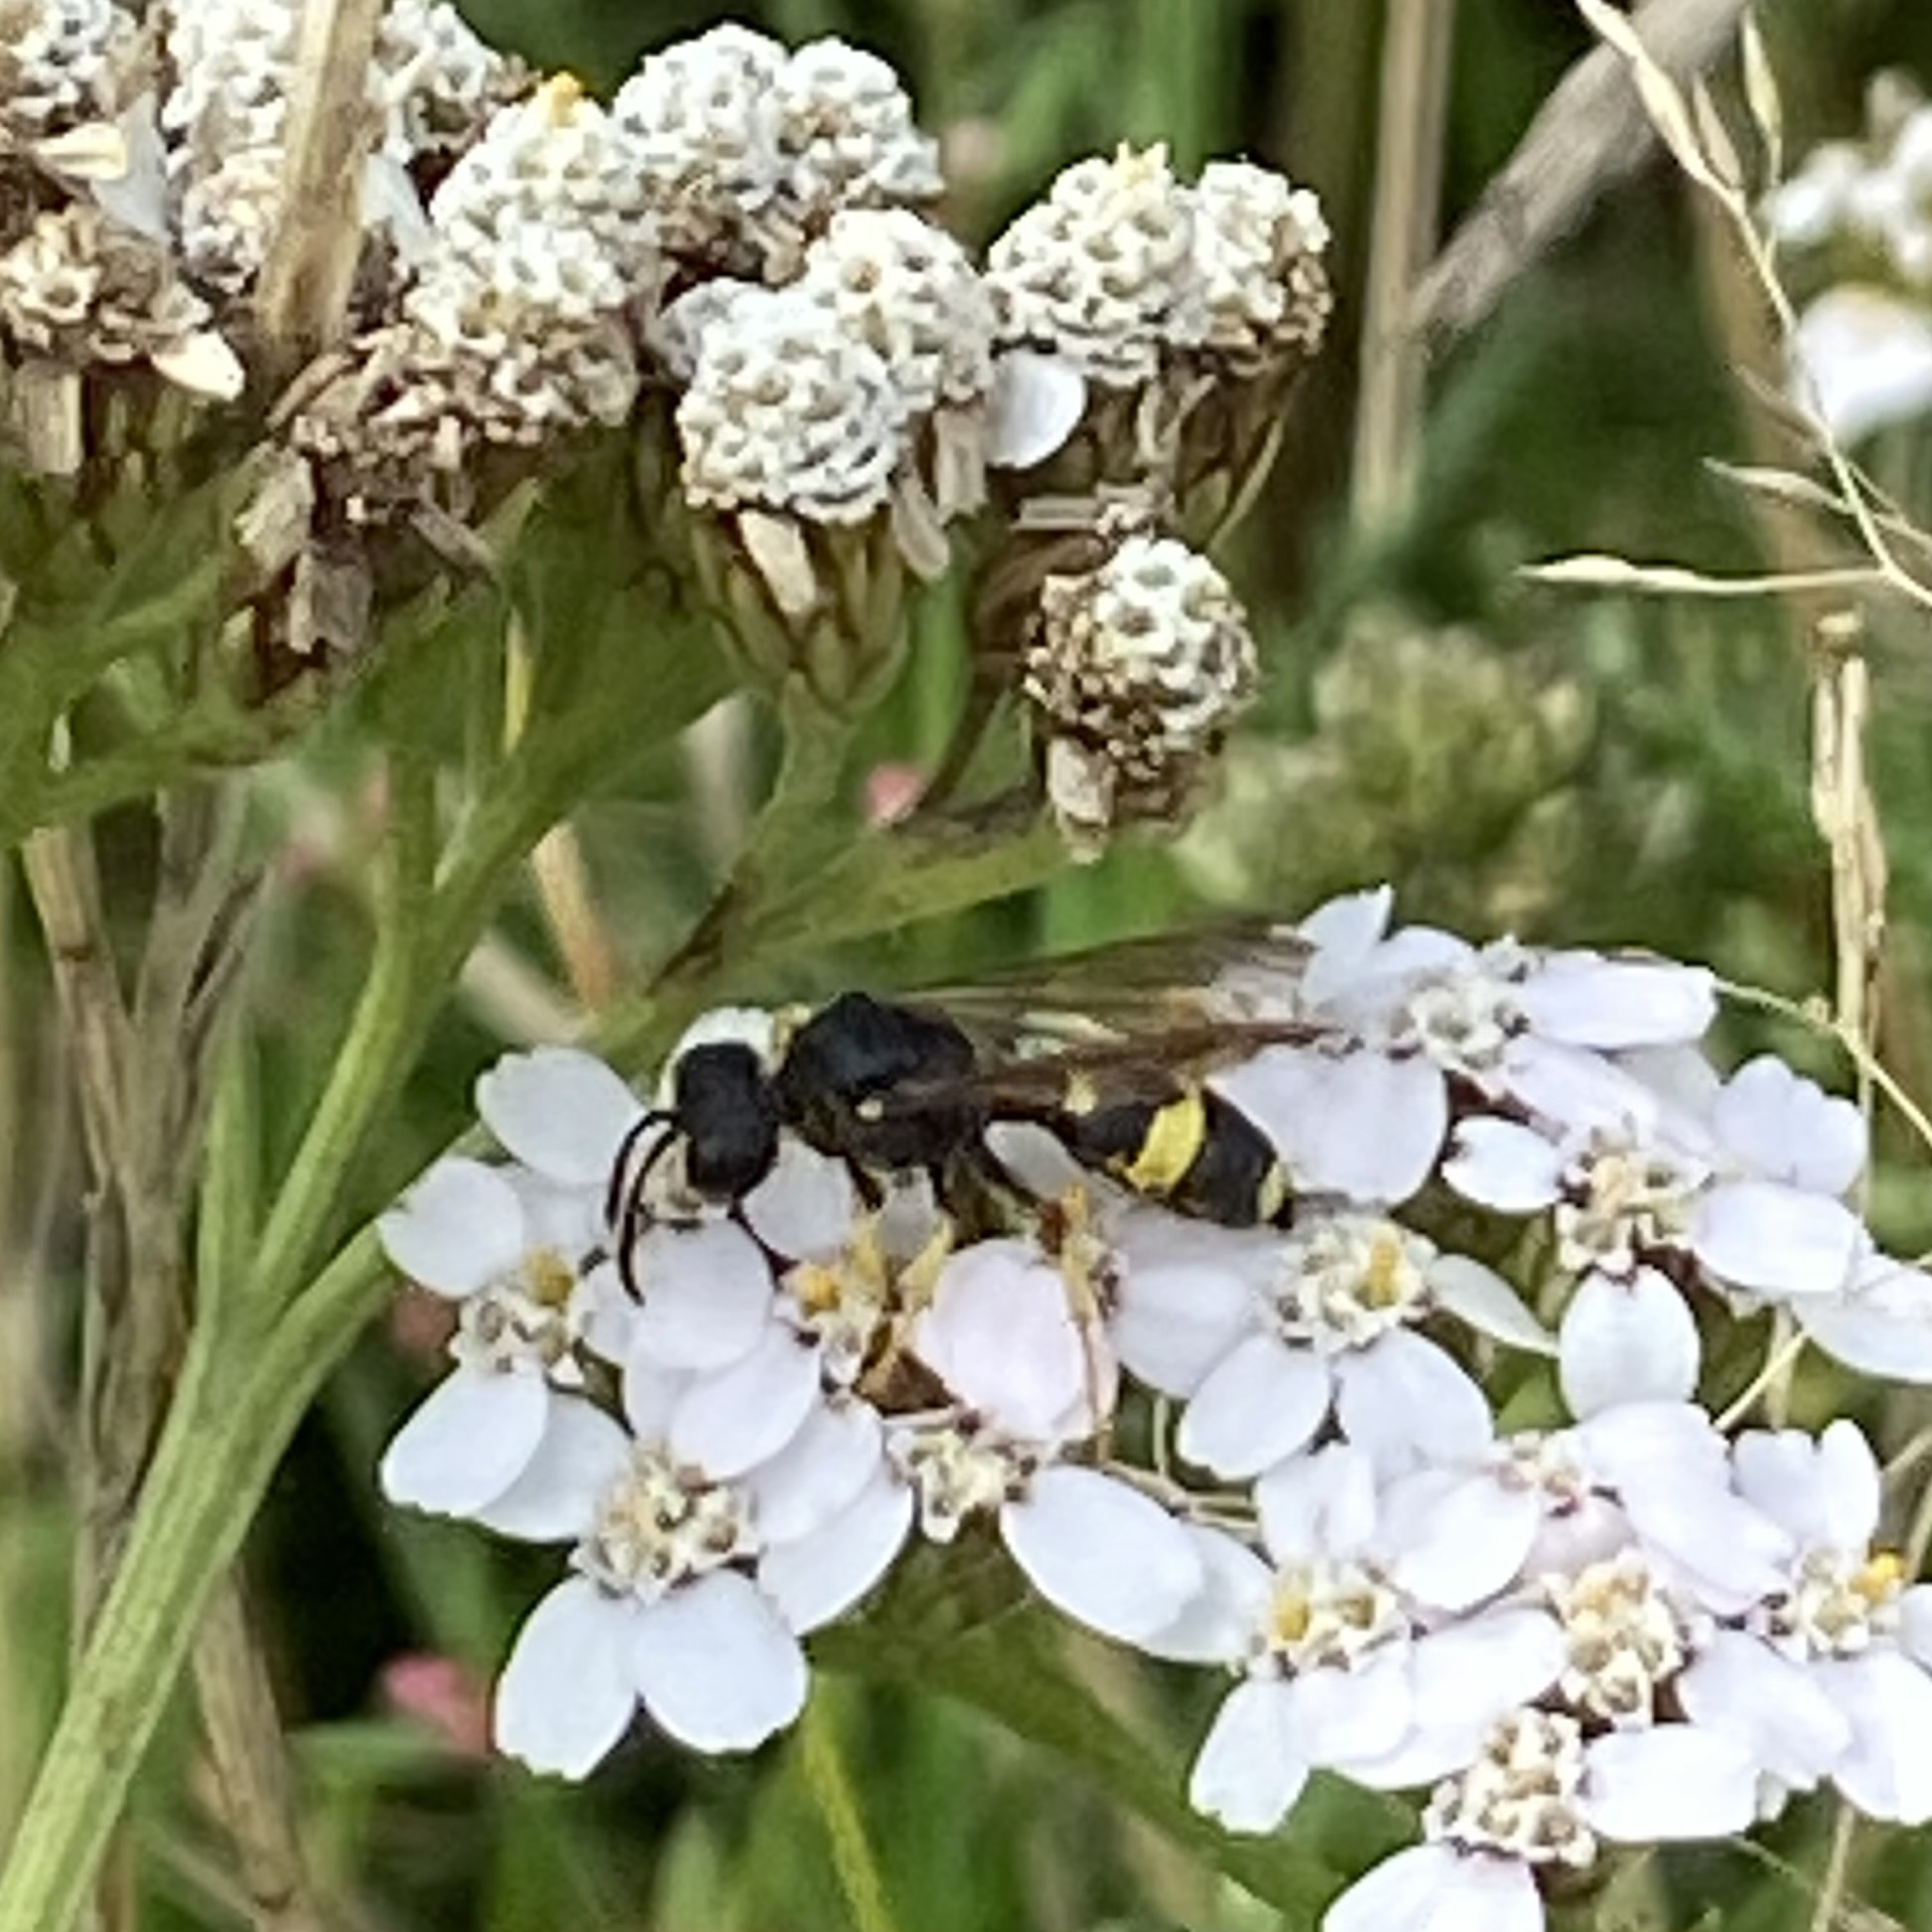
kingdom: Animalia
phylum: Arthropoda
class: Insecta
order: Hymenoptera
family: Crabronidae
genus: Cerceris
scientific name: Cerceris rybyensis
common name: Ornate tailed digger wasp
